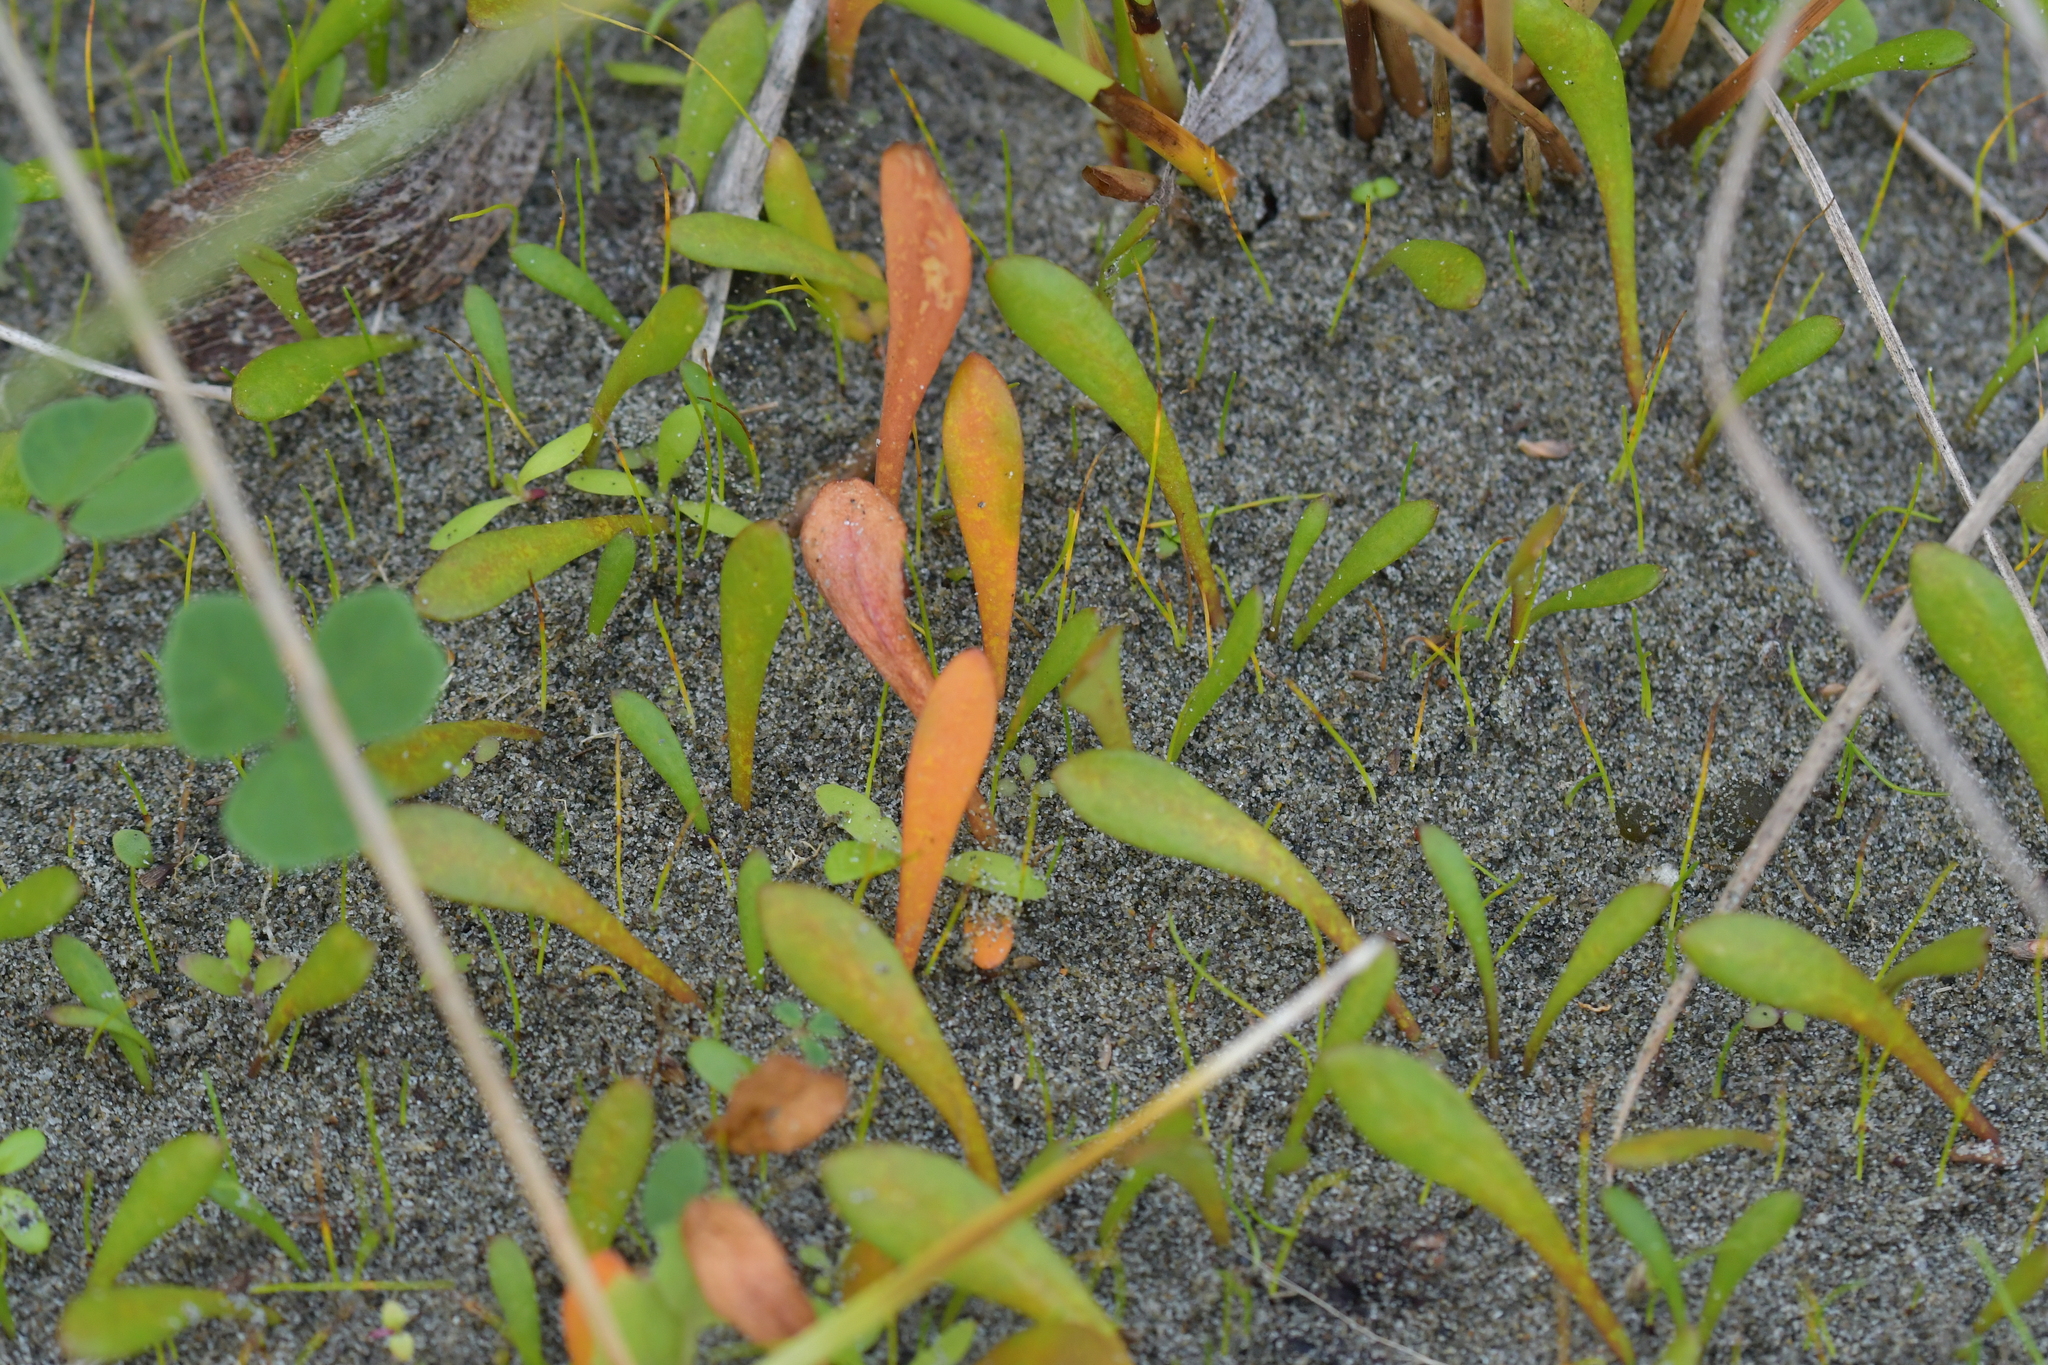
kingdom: Plantae
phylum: Tracheophyta
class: Magnoliopsida
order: Asterales
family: Goodeniaceae
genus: Goodenia
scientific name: Goodenia radicans
